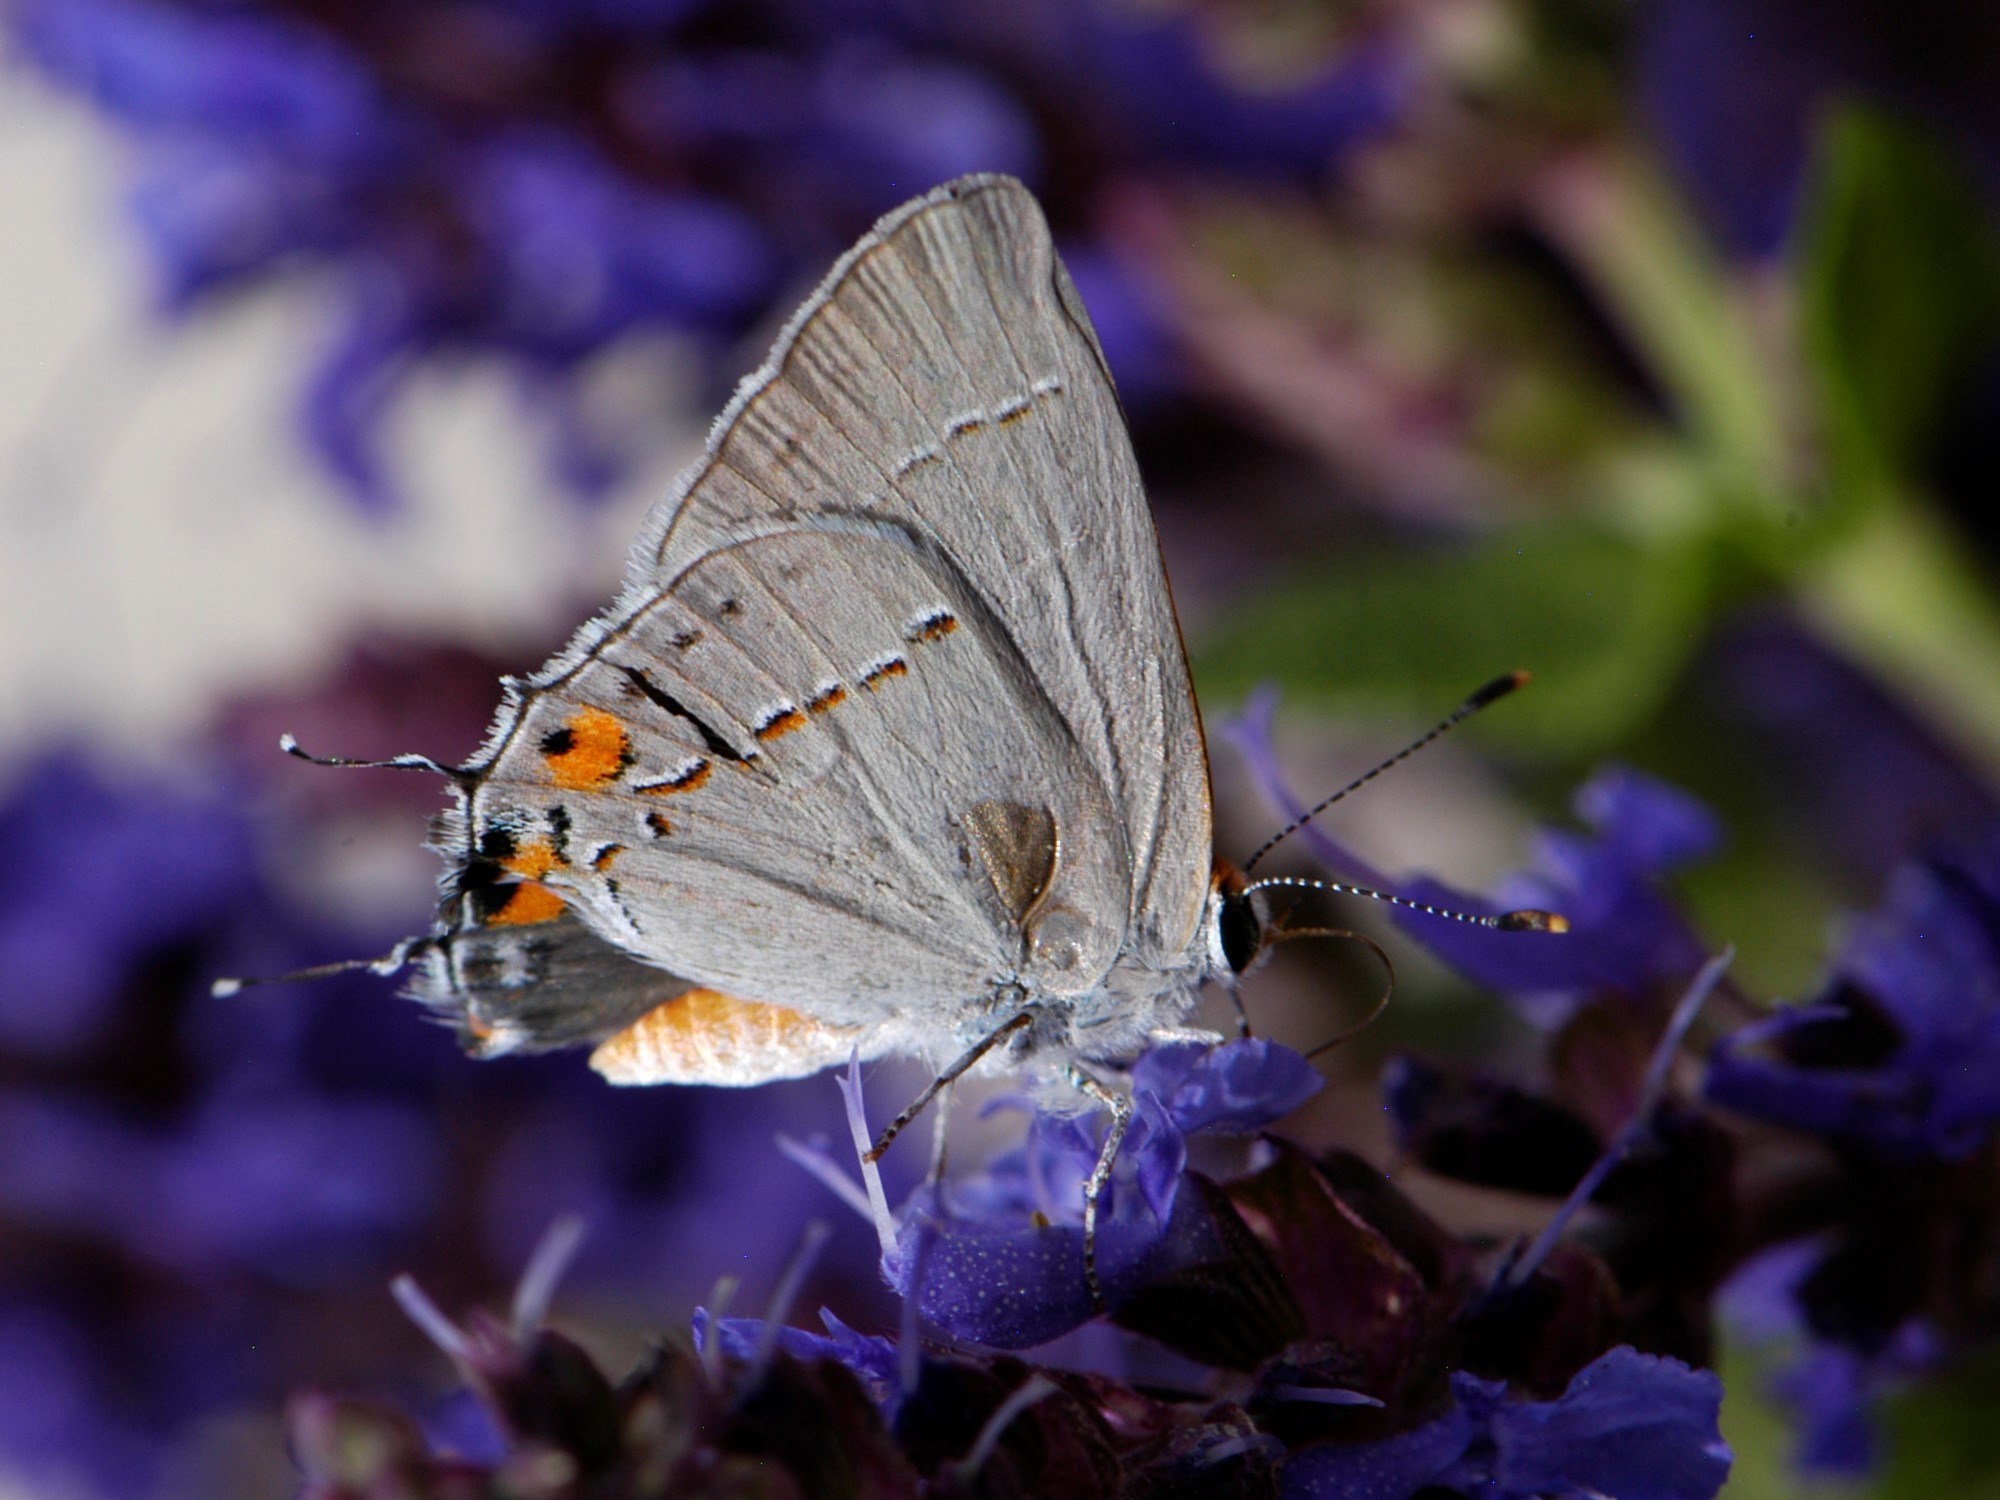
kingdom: Animalia
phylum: Arthropoda
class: Insecta
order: Lepidoptera
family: Lycaenidae
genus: Strymon
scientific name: Strymon melinus
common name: Gray hairstreak
